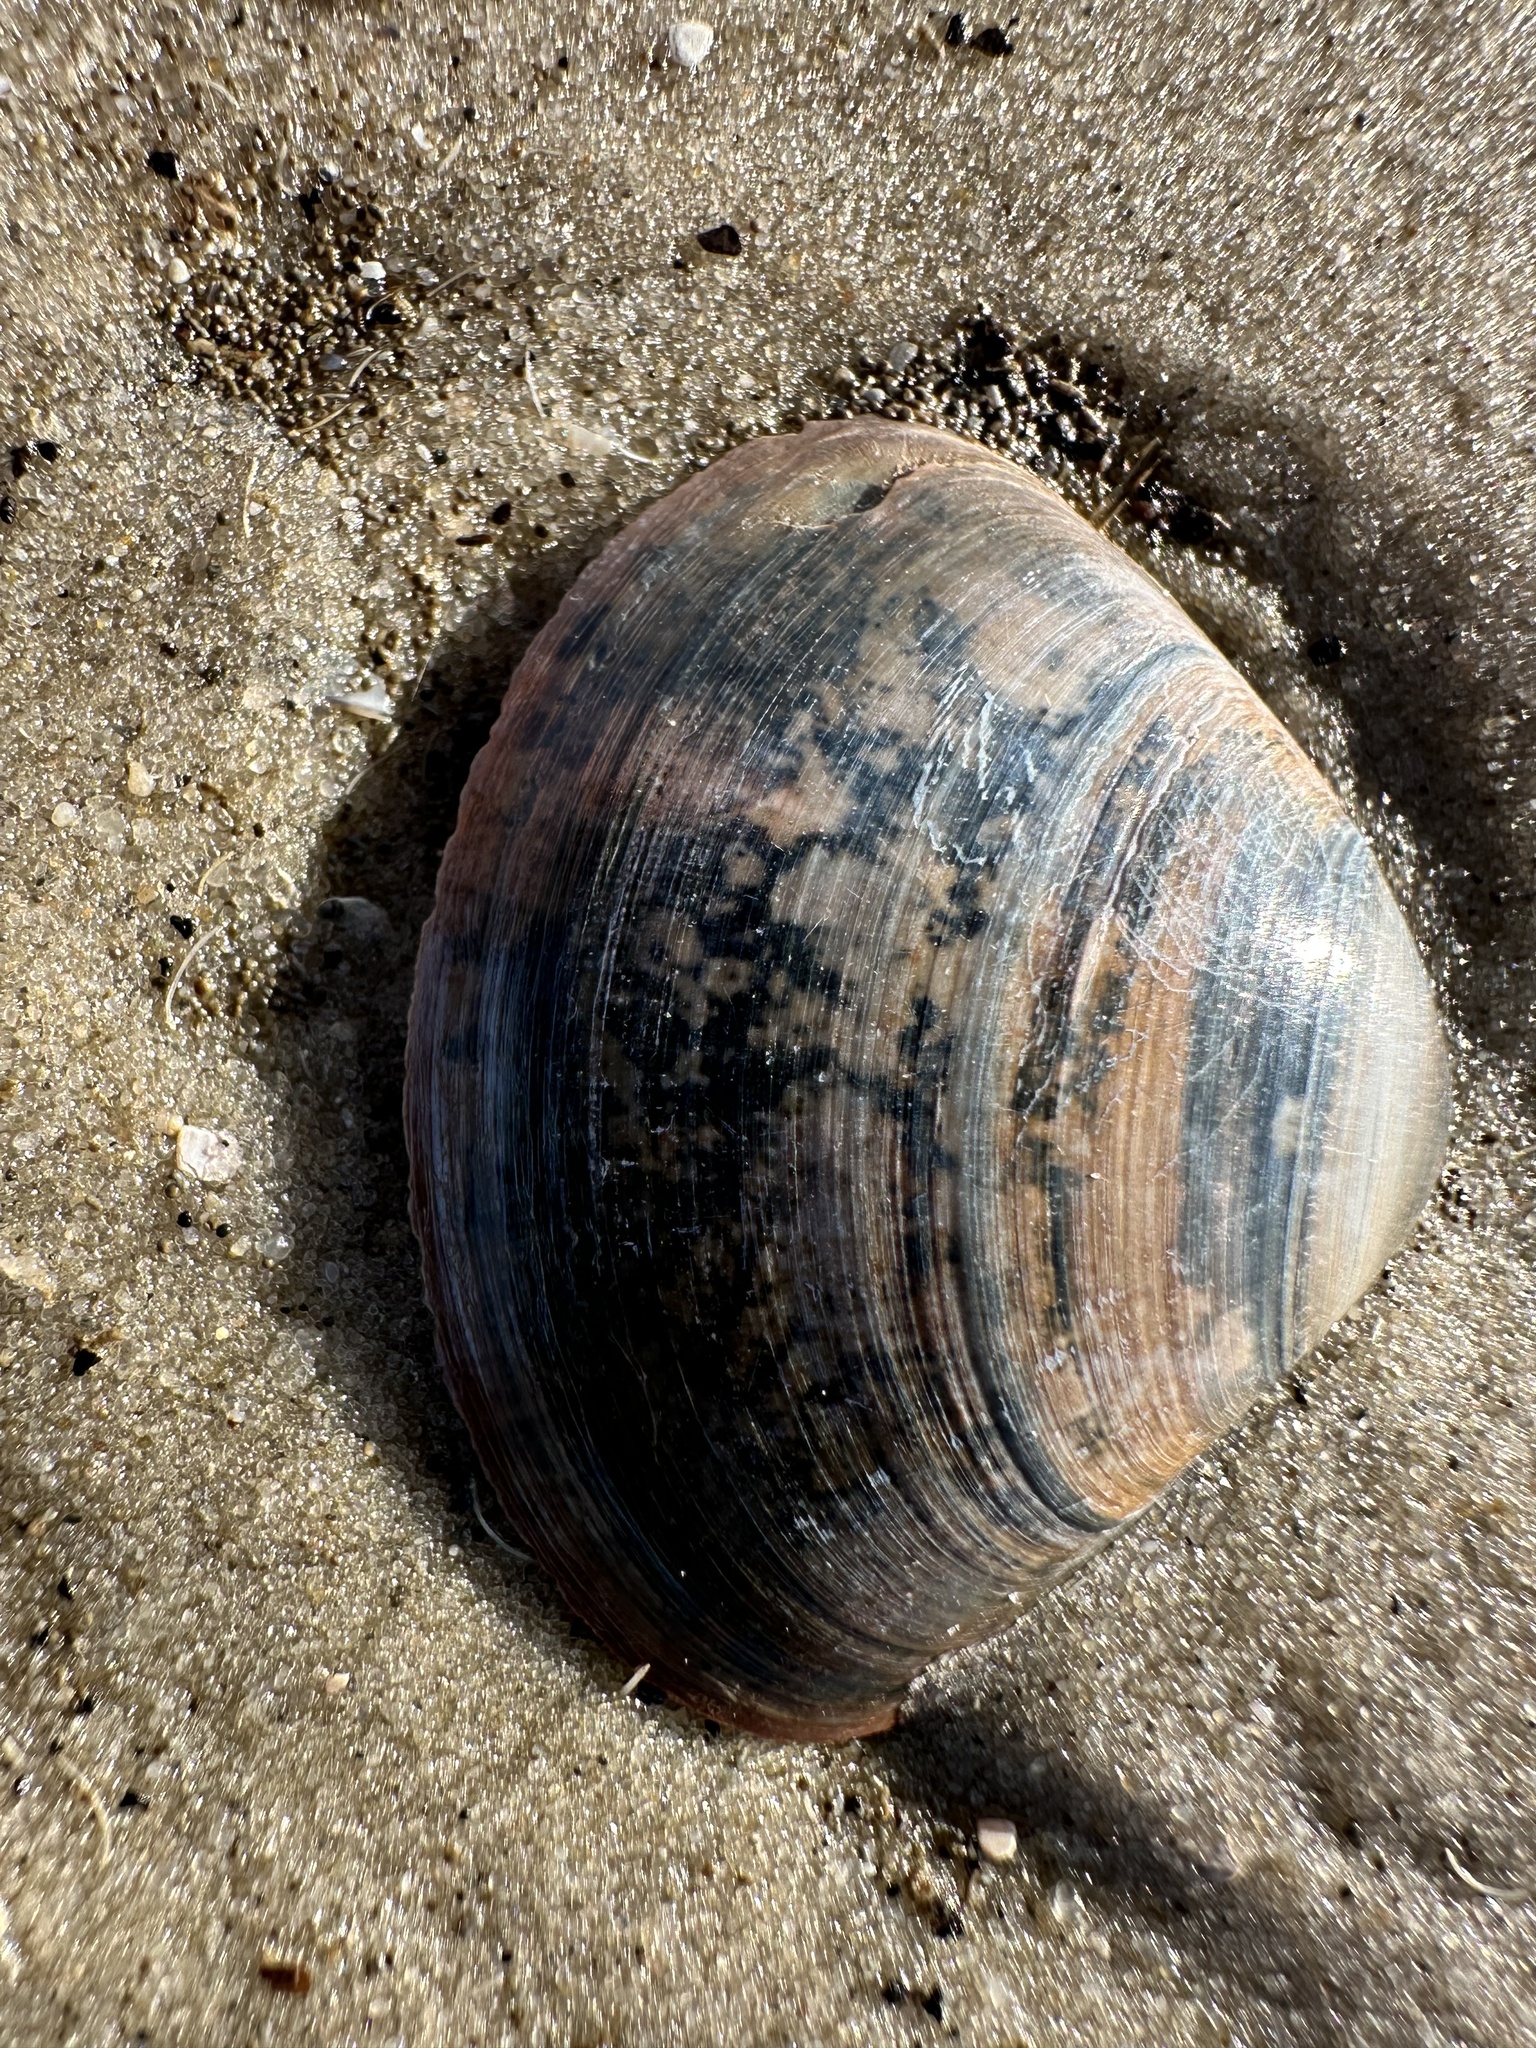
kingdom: Animalia
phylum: Mollusca
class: Bivalvia
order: Venerida
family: Mactridae
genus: Mactra
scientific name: Mactra stultorum
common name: Rayed trough shell
